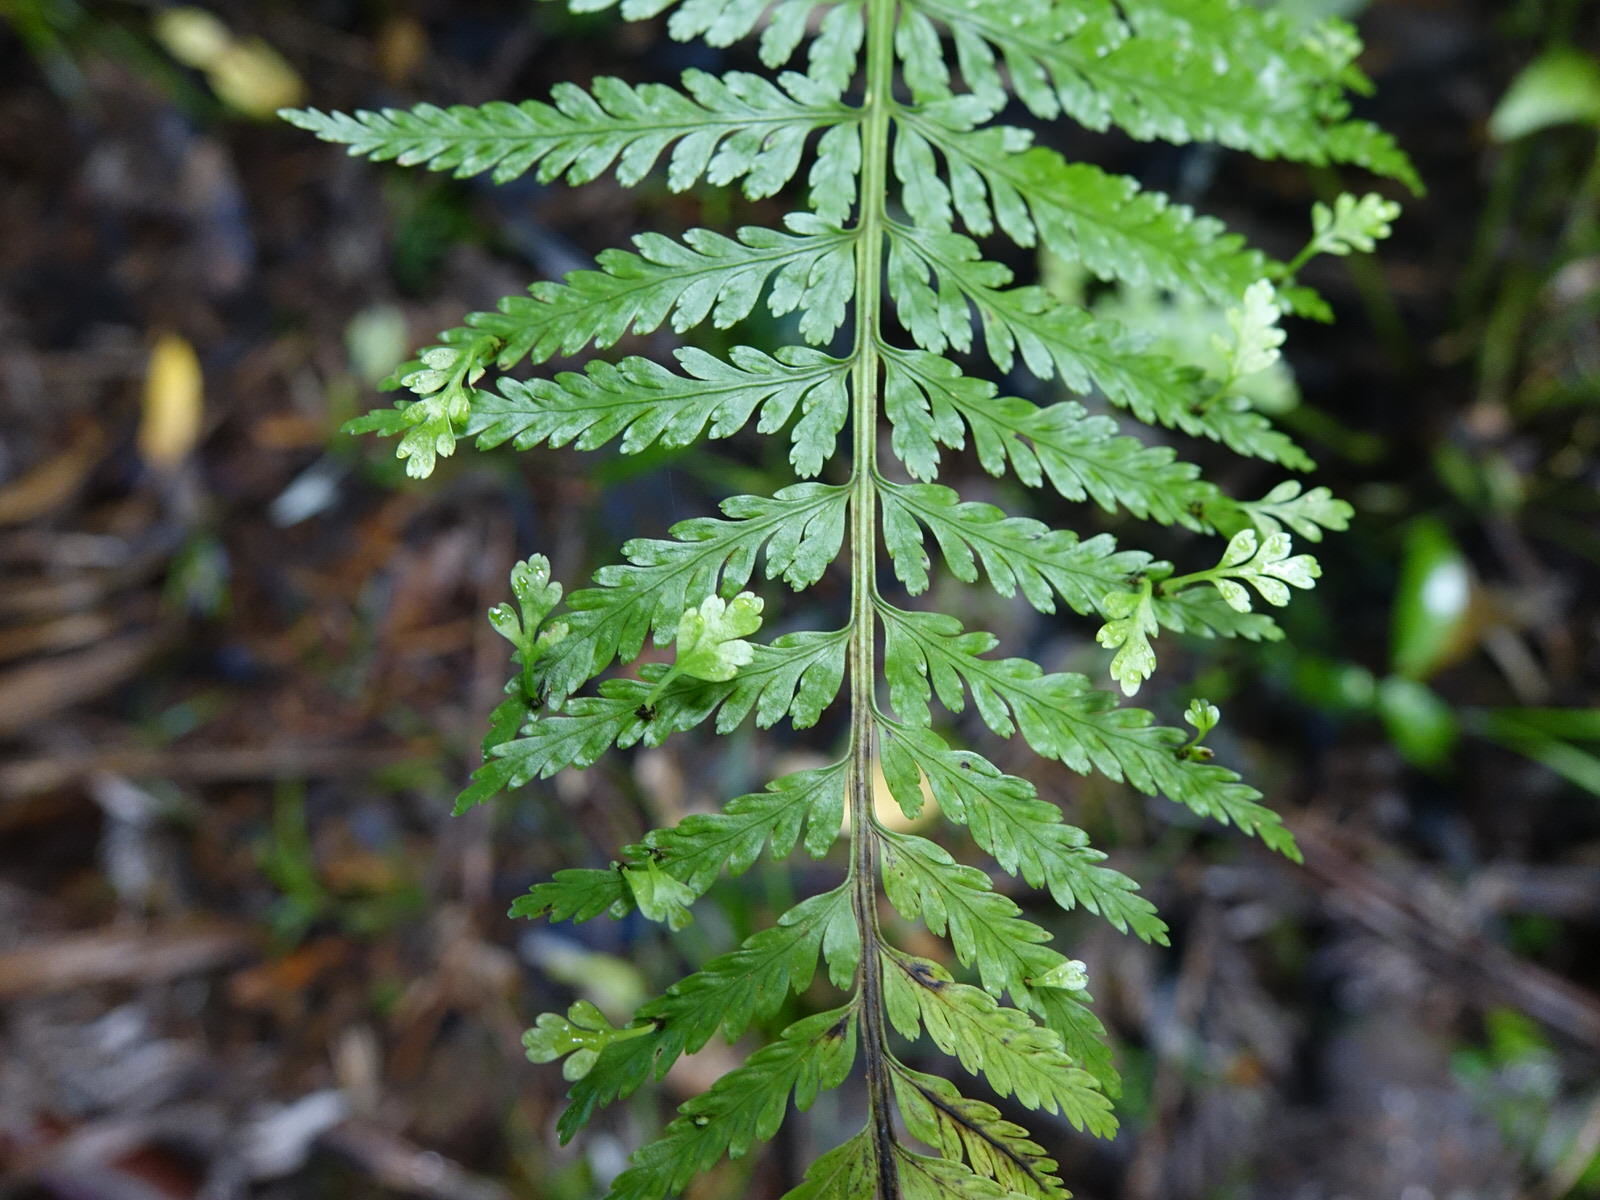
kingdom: Plantae
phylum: Tracheophyta
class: Polypodiopsida
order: Polypodiales
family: Aspleniaceae
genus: Asplenium
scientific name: Asplenium bulbiferum
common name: Mother fern
